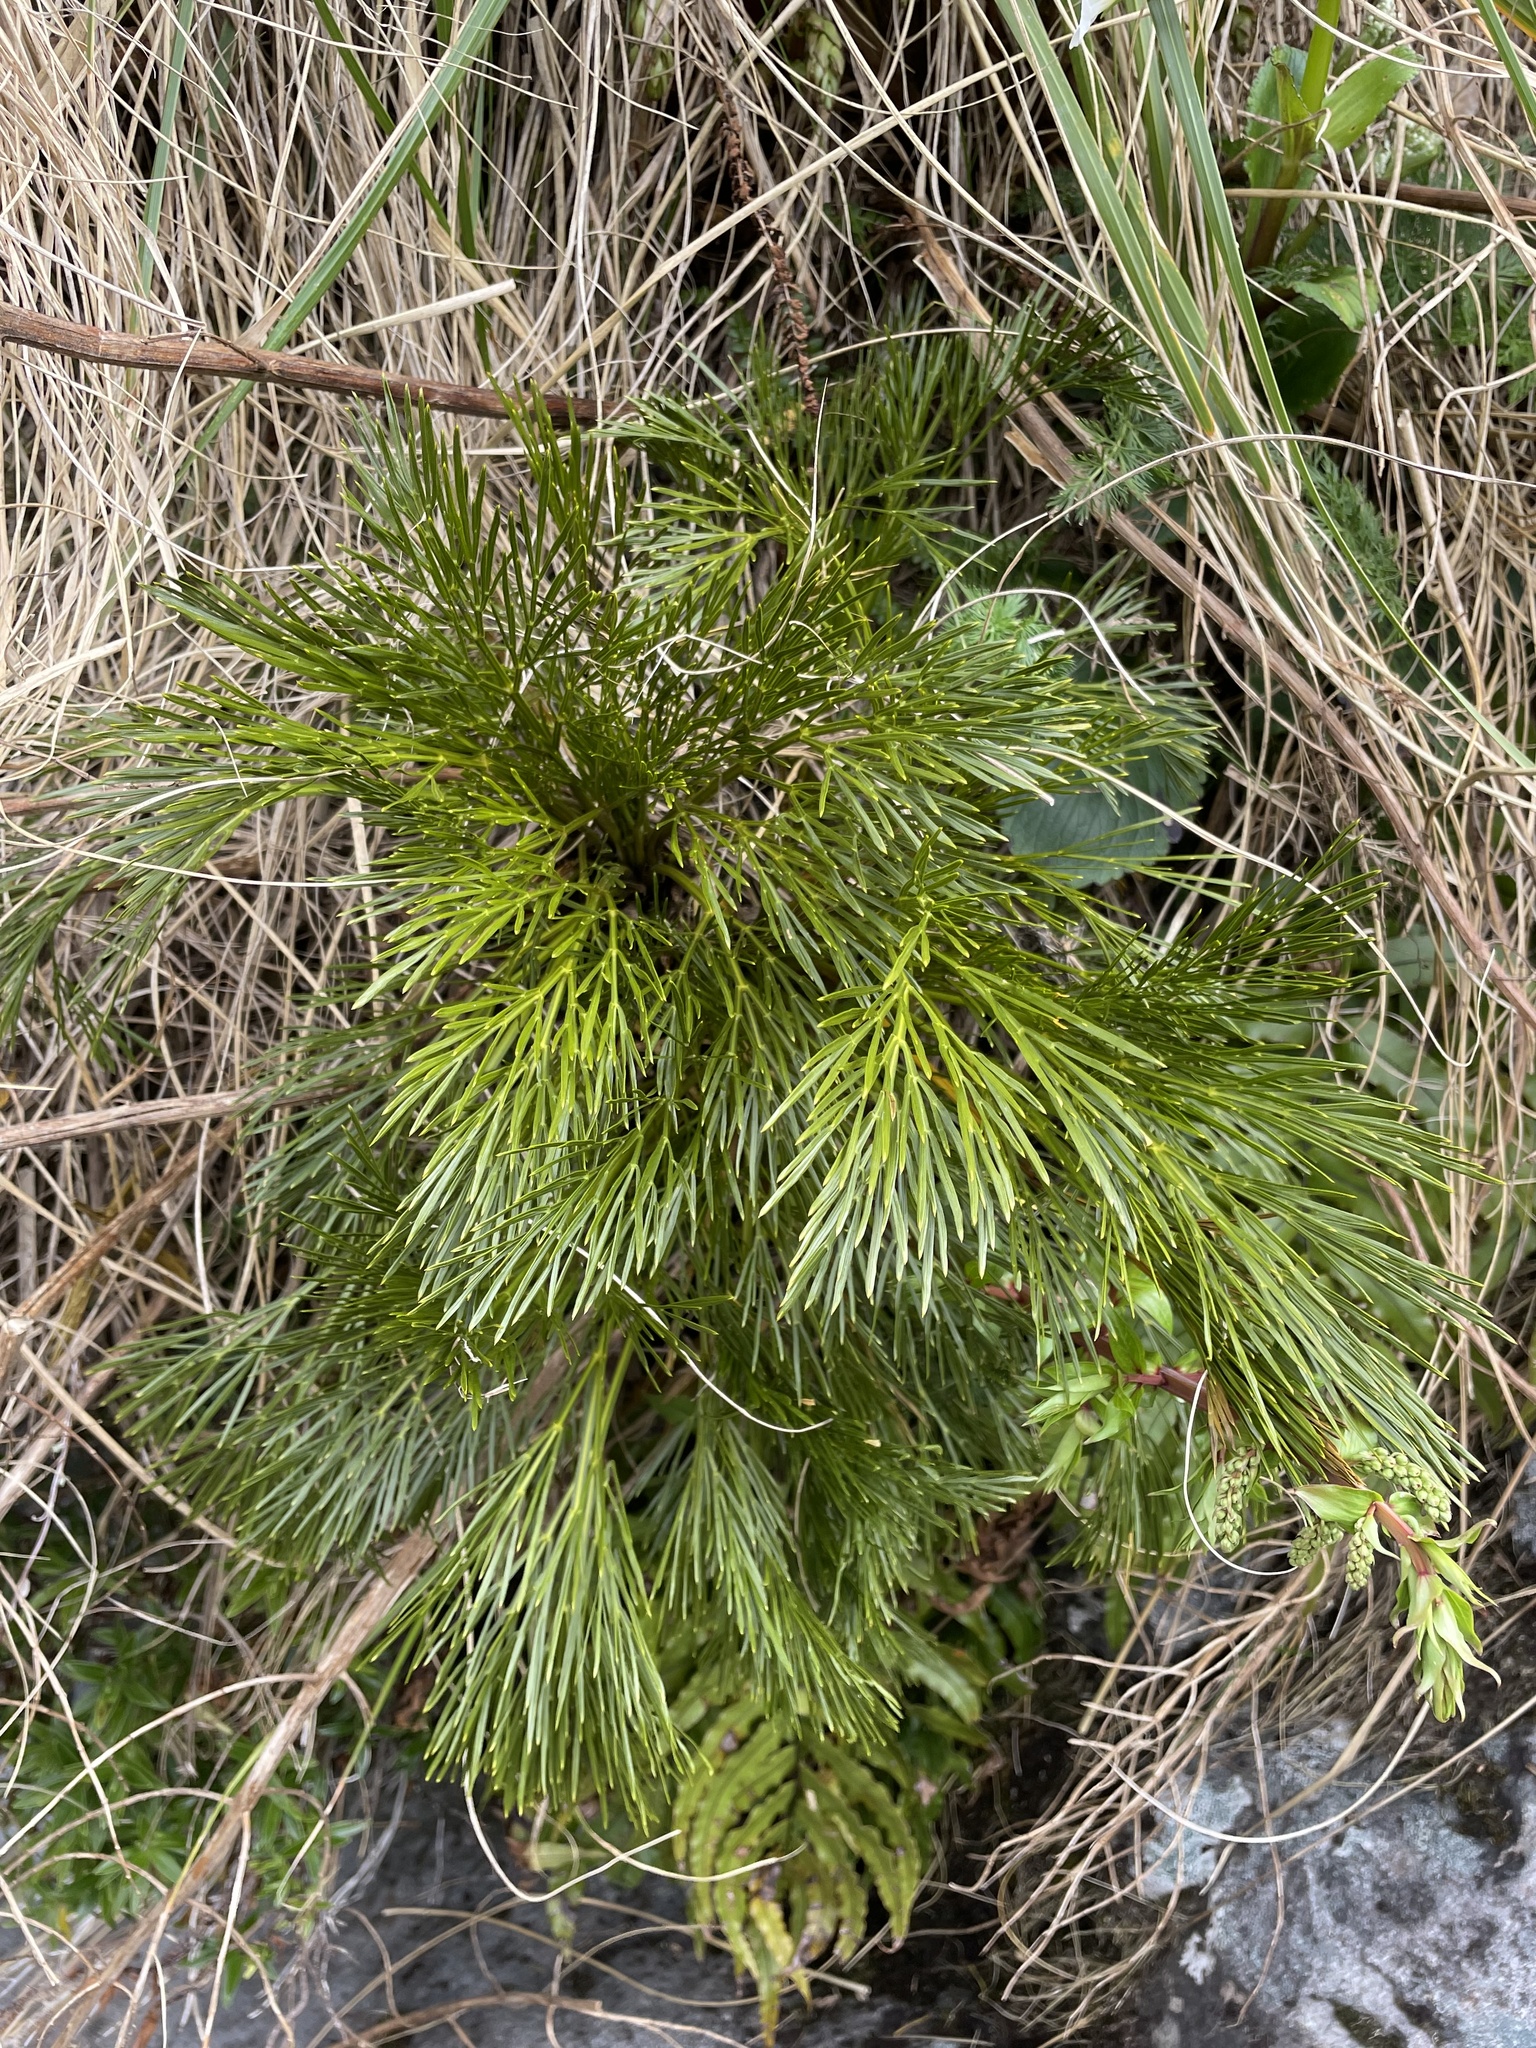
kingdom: Plantae
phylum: Tracheophyta
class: Magnoliopsida
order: Apiales
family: Apiaceae
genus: Aciphylla
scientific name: Aciphylla multisecta
